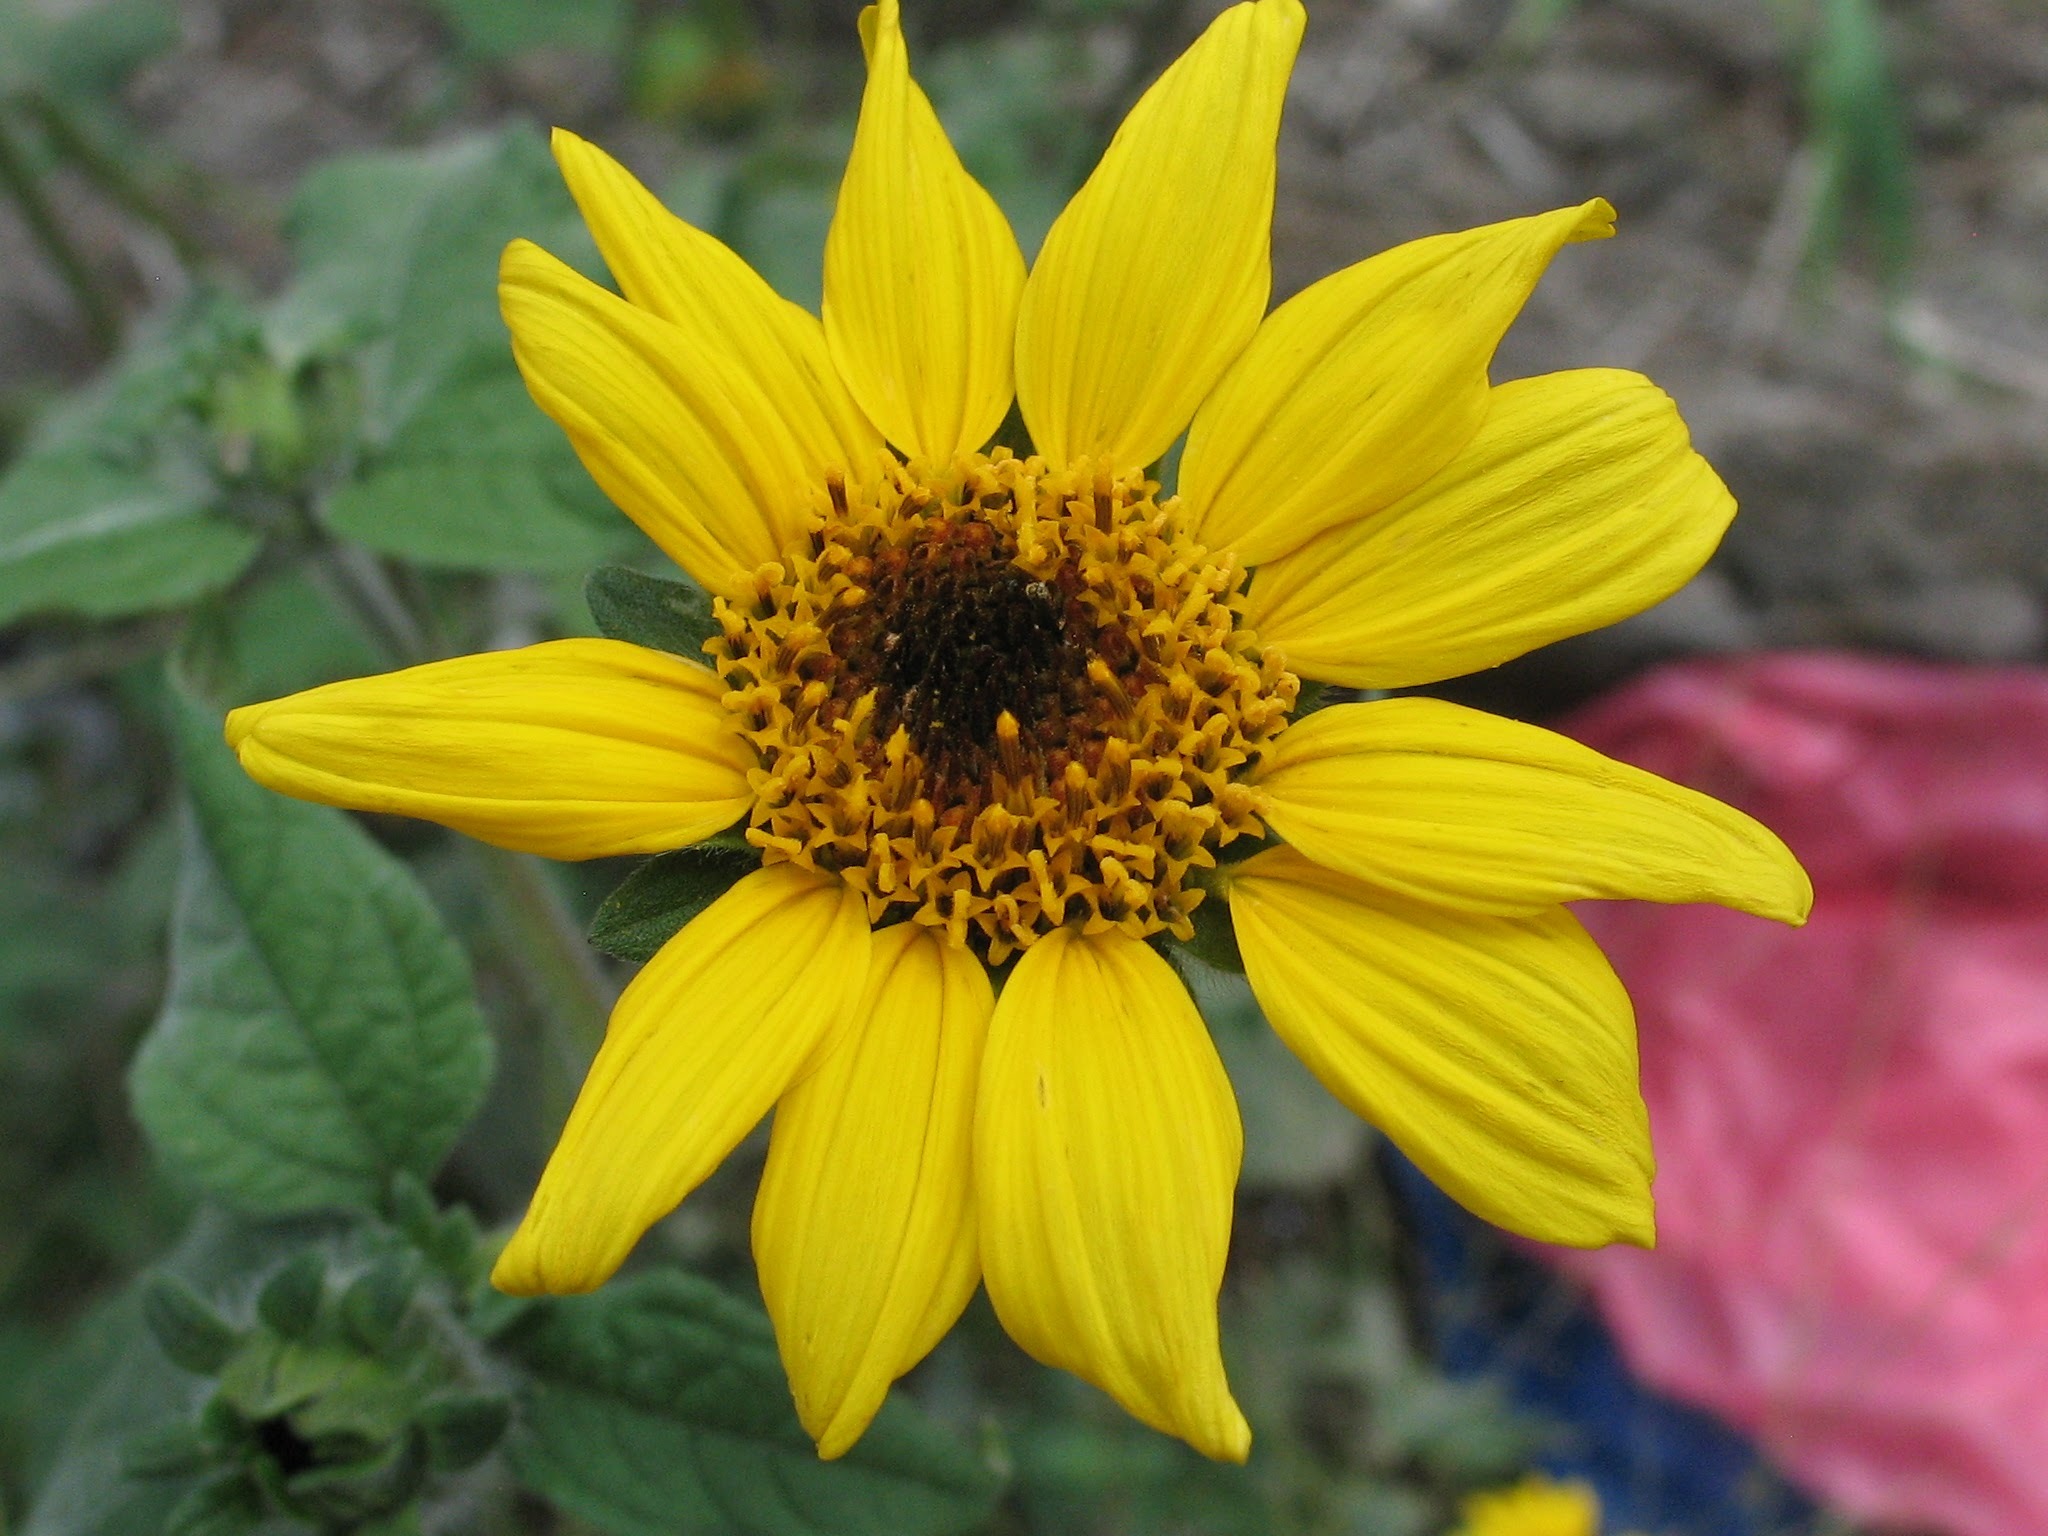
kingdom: Plantae
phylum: Tracheophyta
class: Magnoliopsida
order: Asterales
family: Asteraceae
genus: Tithonia
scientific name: Tithonia tubaeformis
